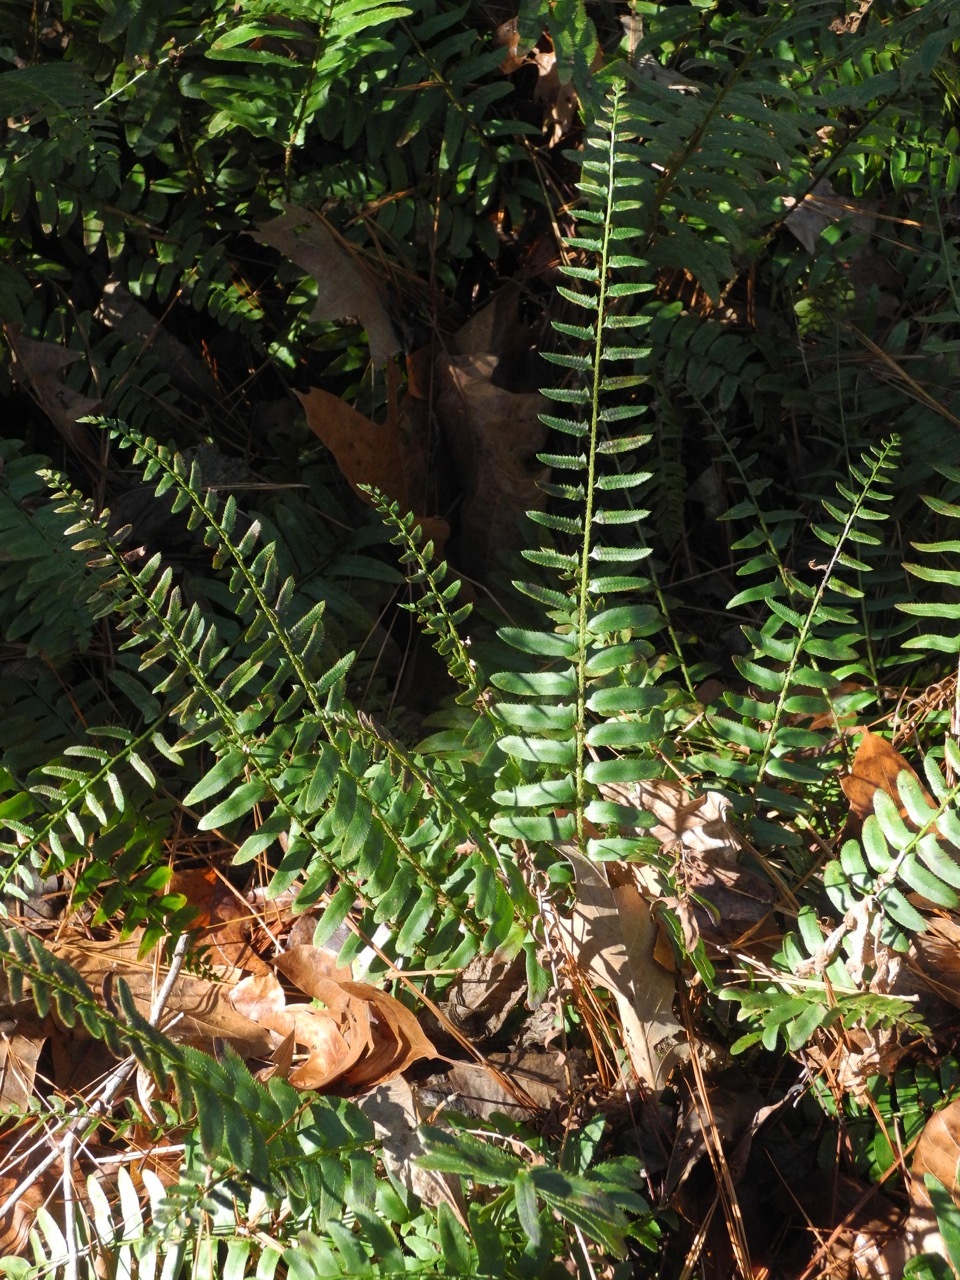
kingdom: Plantae
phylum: Tracheophyta
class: Polypodiopsida
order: Polypodiales
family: Dryopteridaceae
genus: Polystichum
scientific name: Polystichum acrostichoides
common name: Christmas fern
